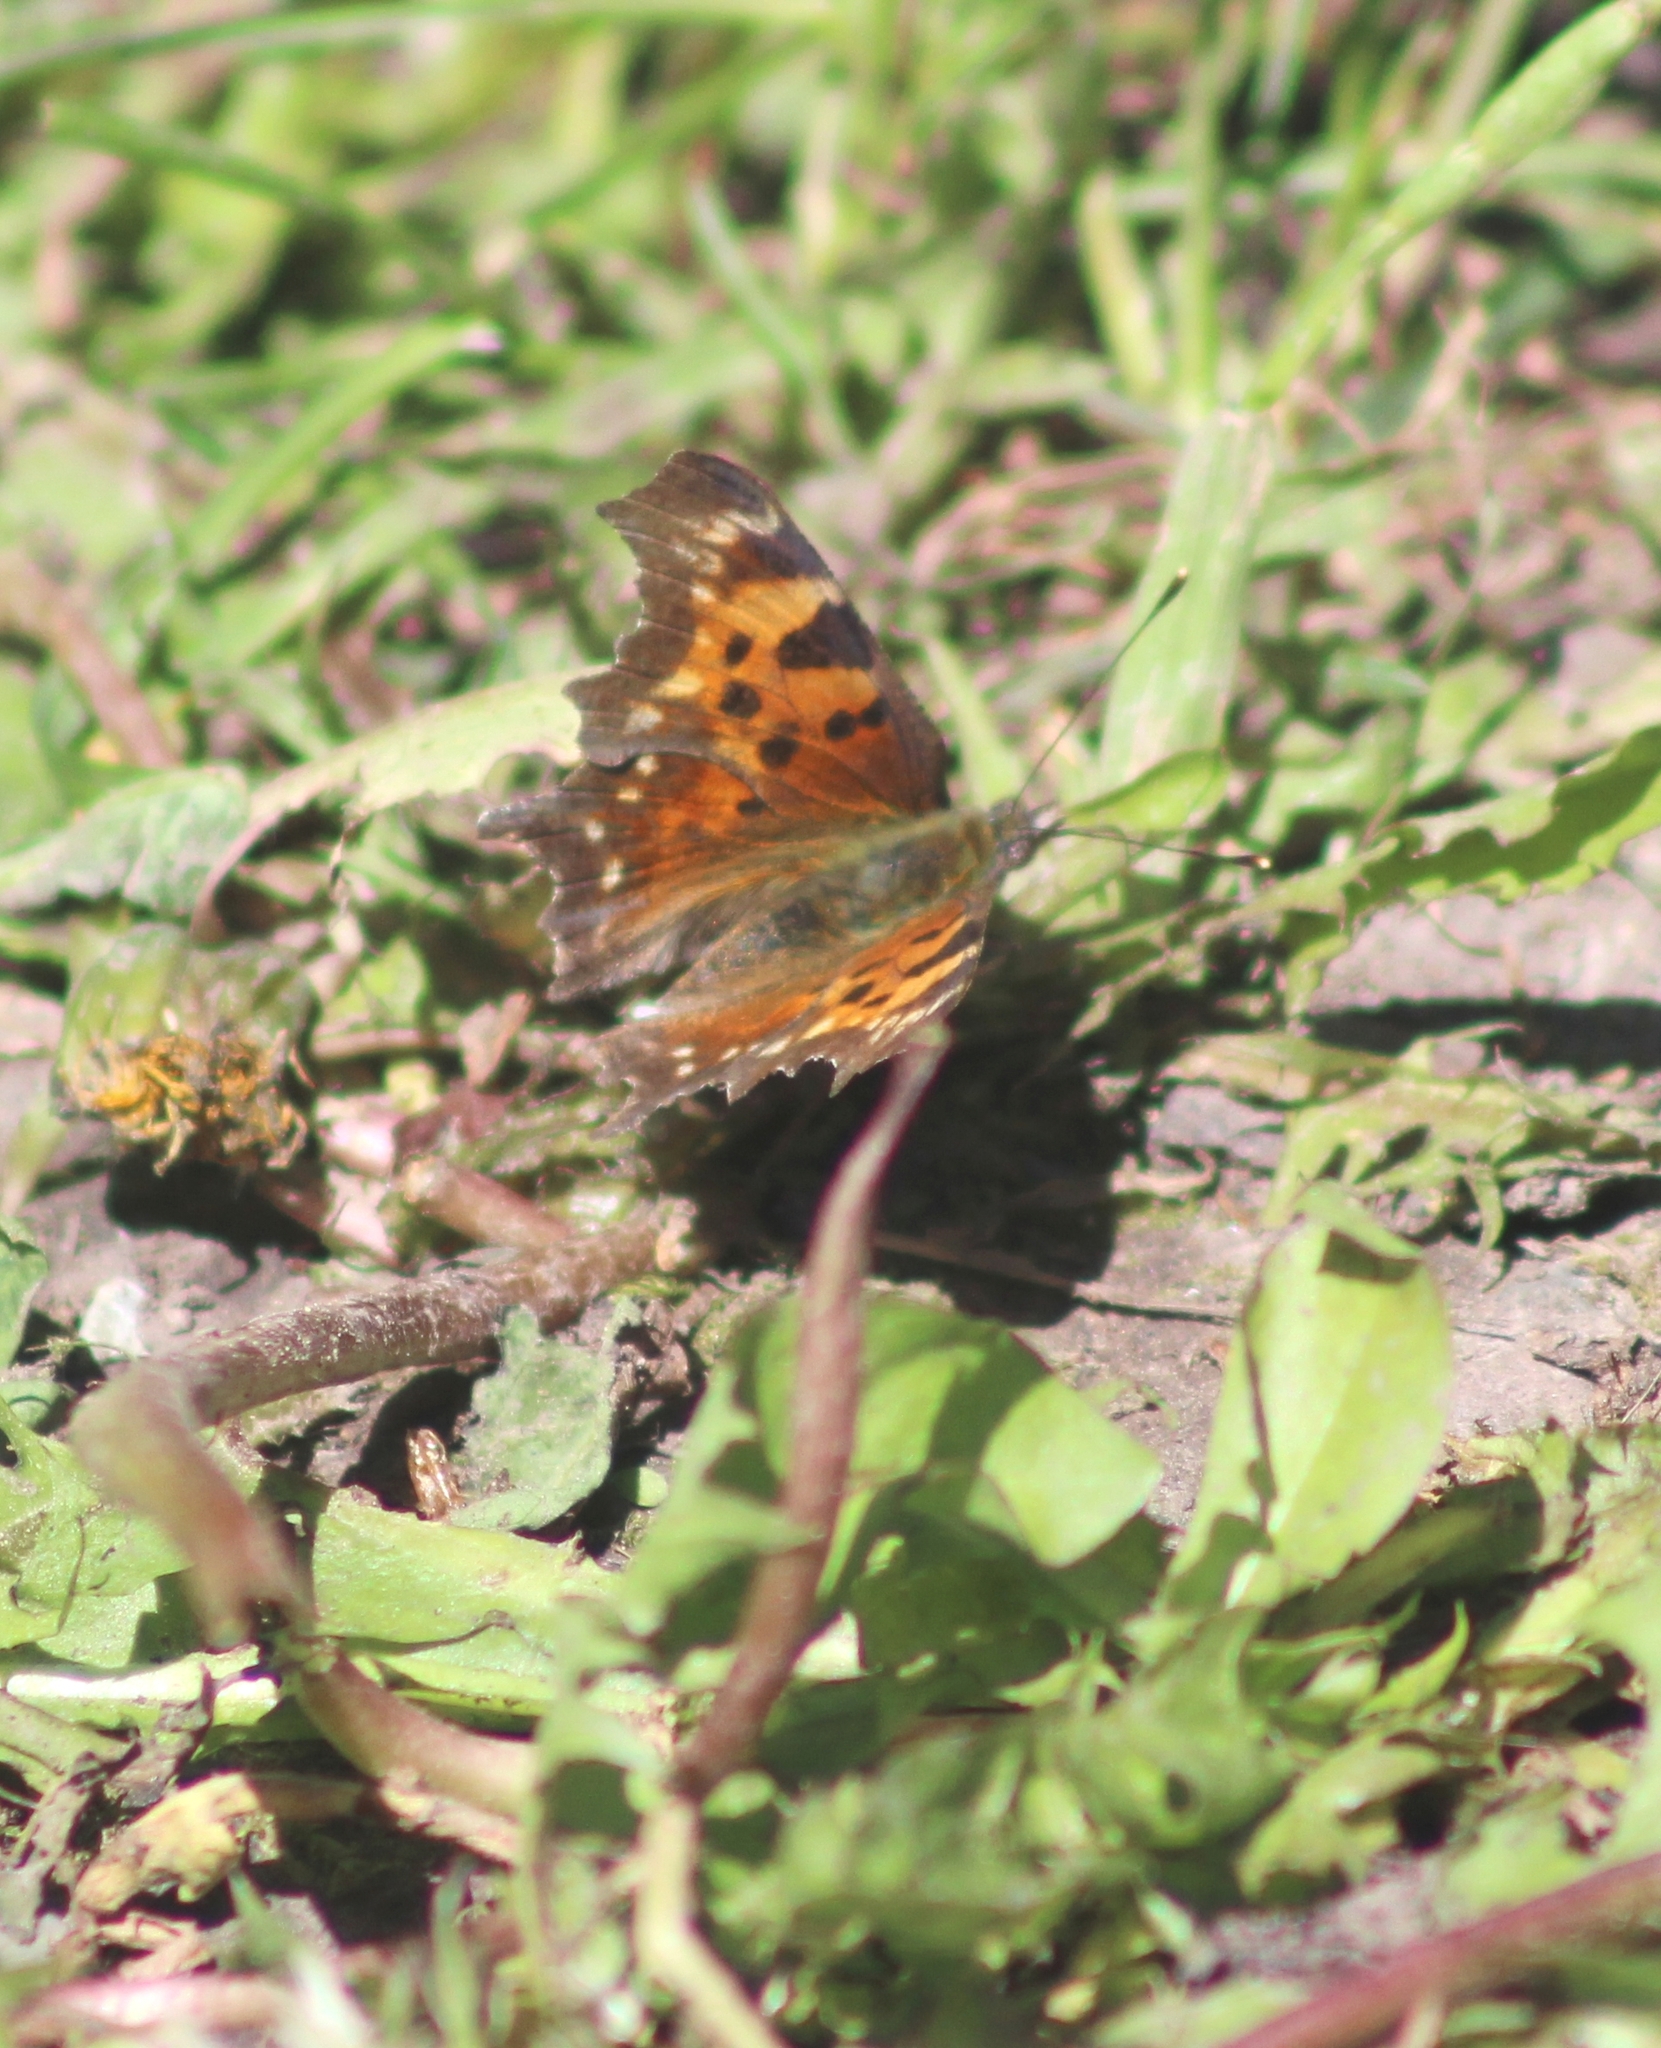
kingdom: Animalia
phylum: Arthropoda
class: Insecta
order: Lepidoptera
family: Nymphalidae
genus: Polygonia
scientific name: Polygonia faunus
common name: Green comma
